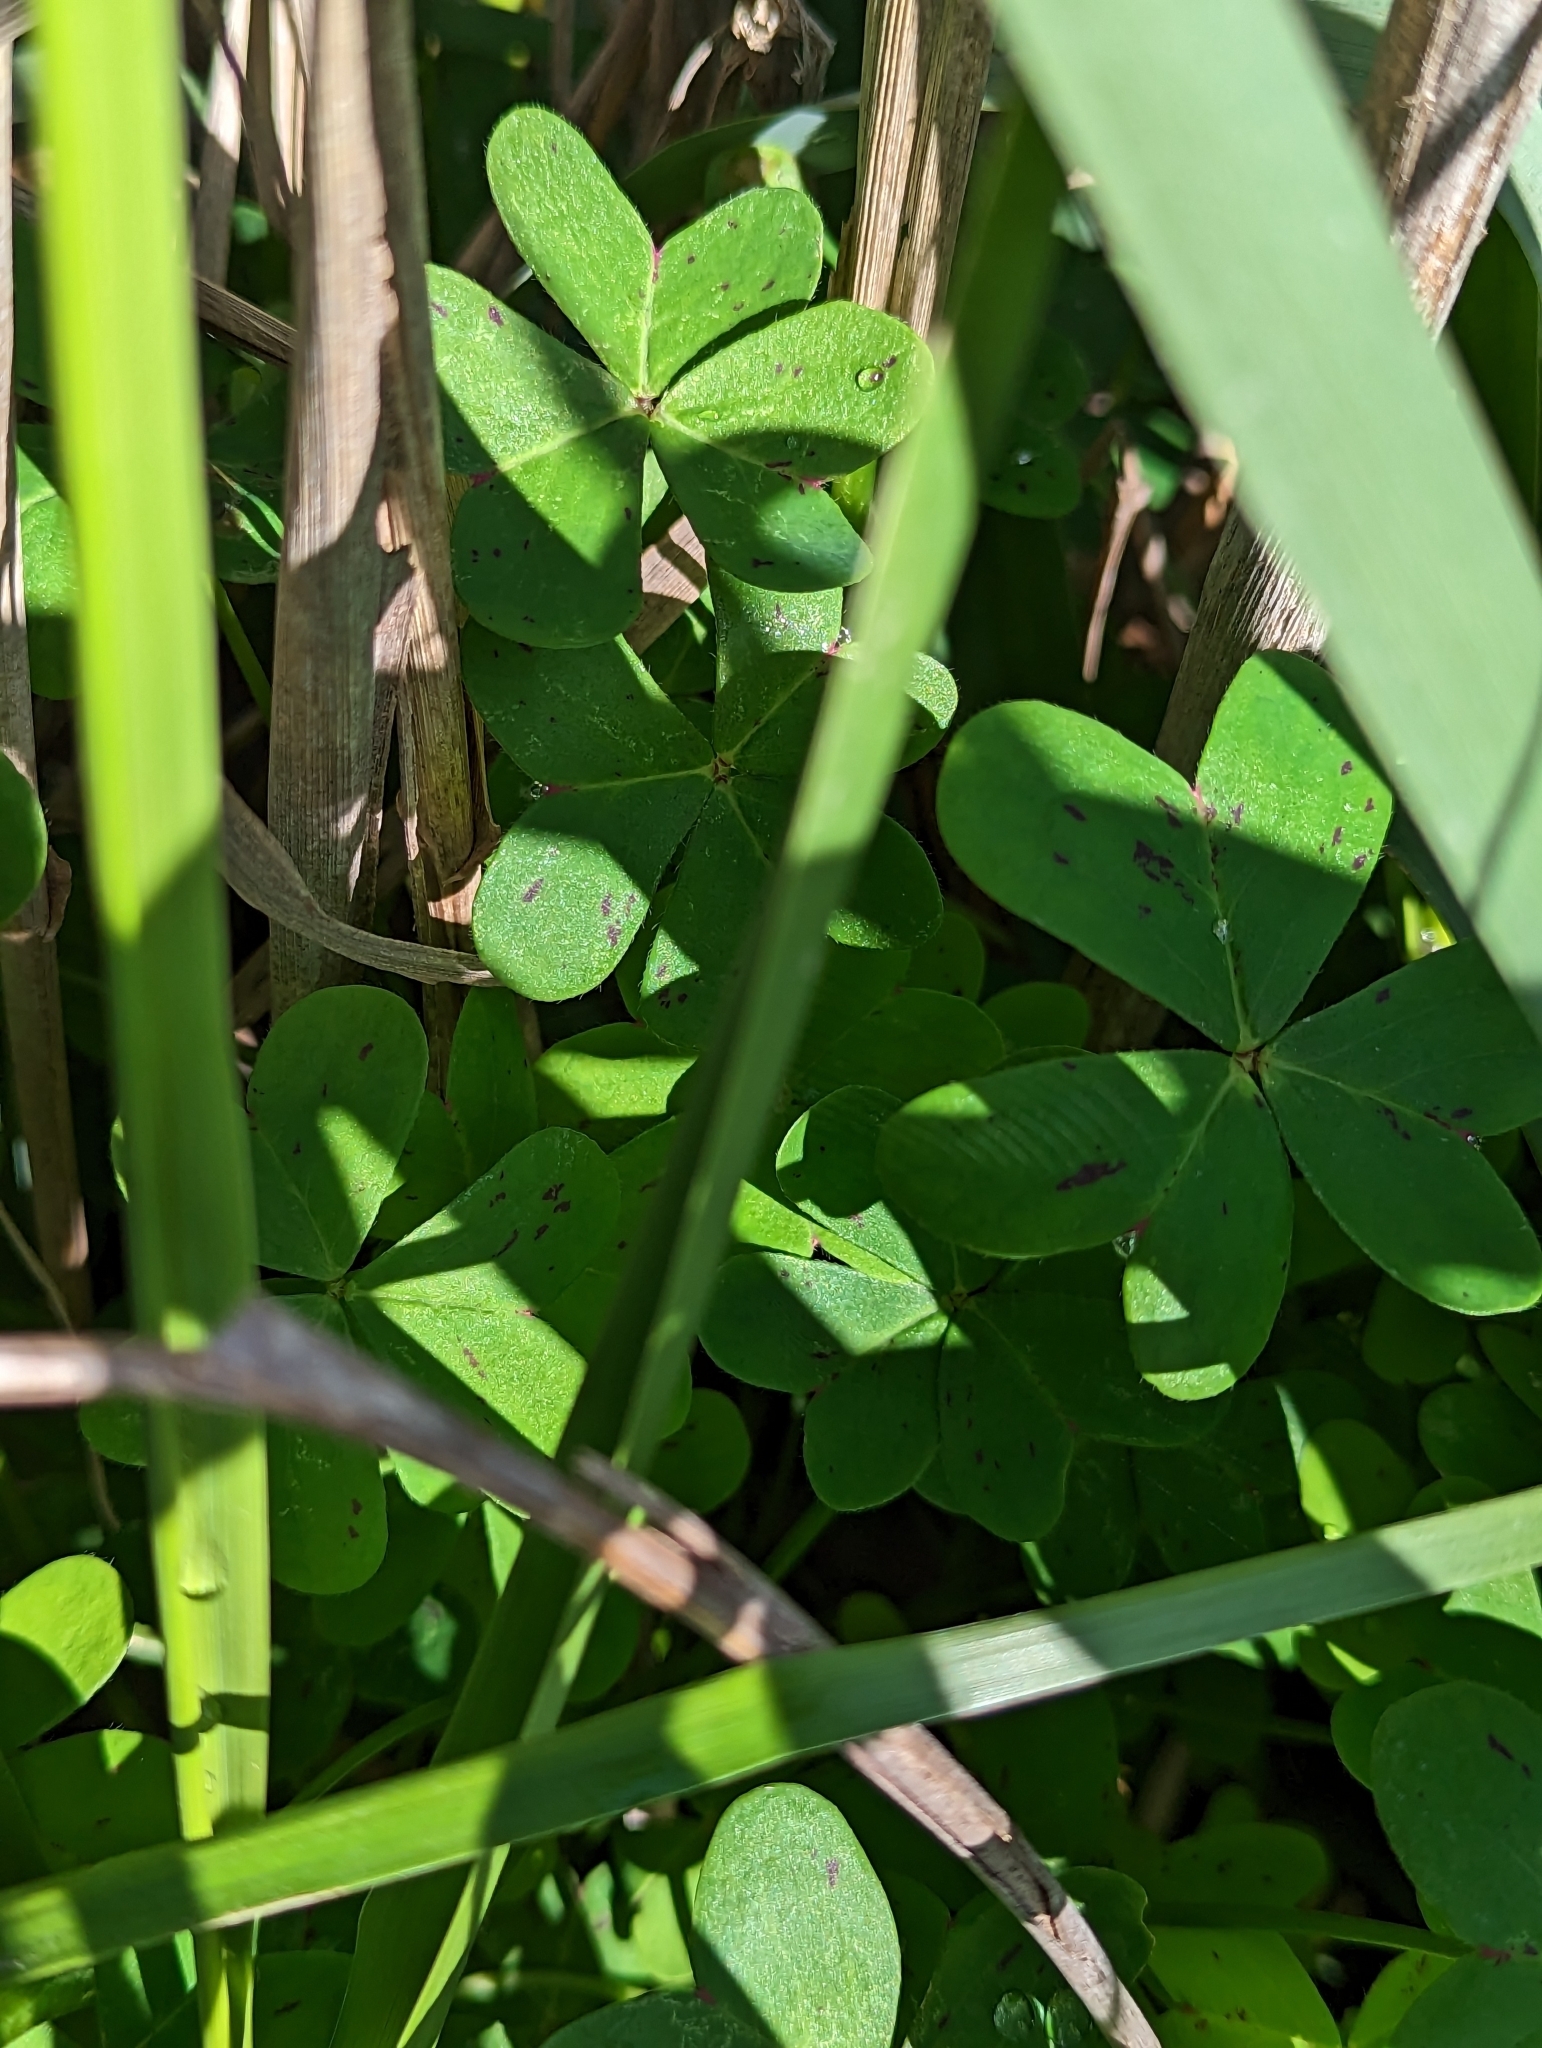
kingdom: Plantae
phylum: Tracheophyta
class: Magnoliopsida
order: Oxalidales
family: Oxalidaceae
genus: Oxalis
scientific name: Oxalis pes-caprae
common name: Bermuda-buttercup
